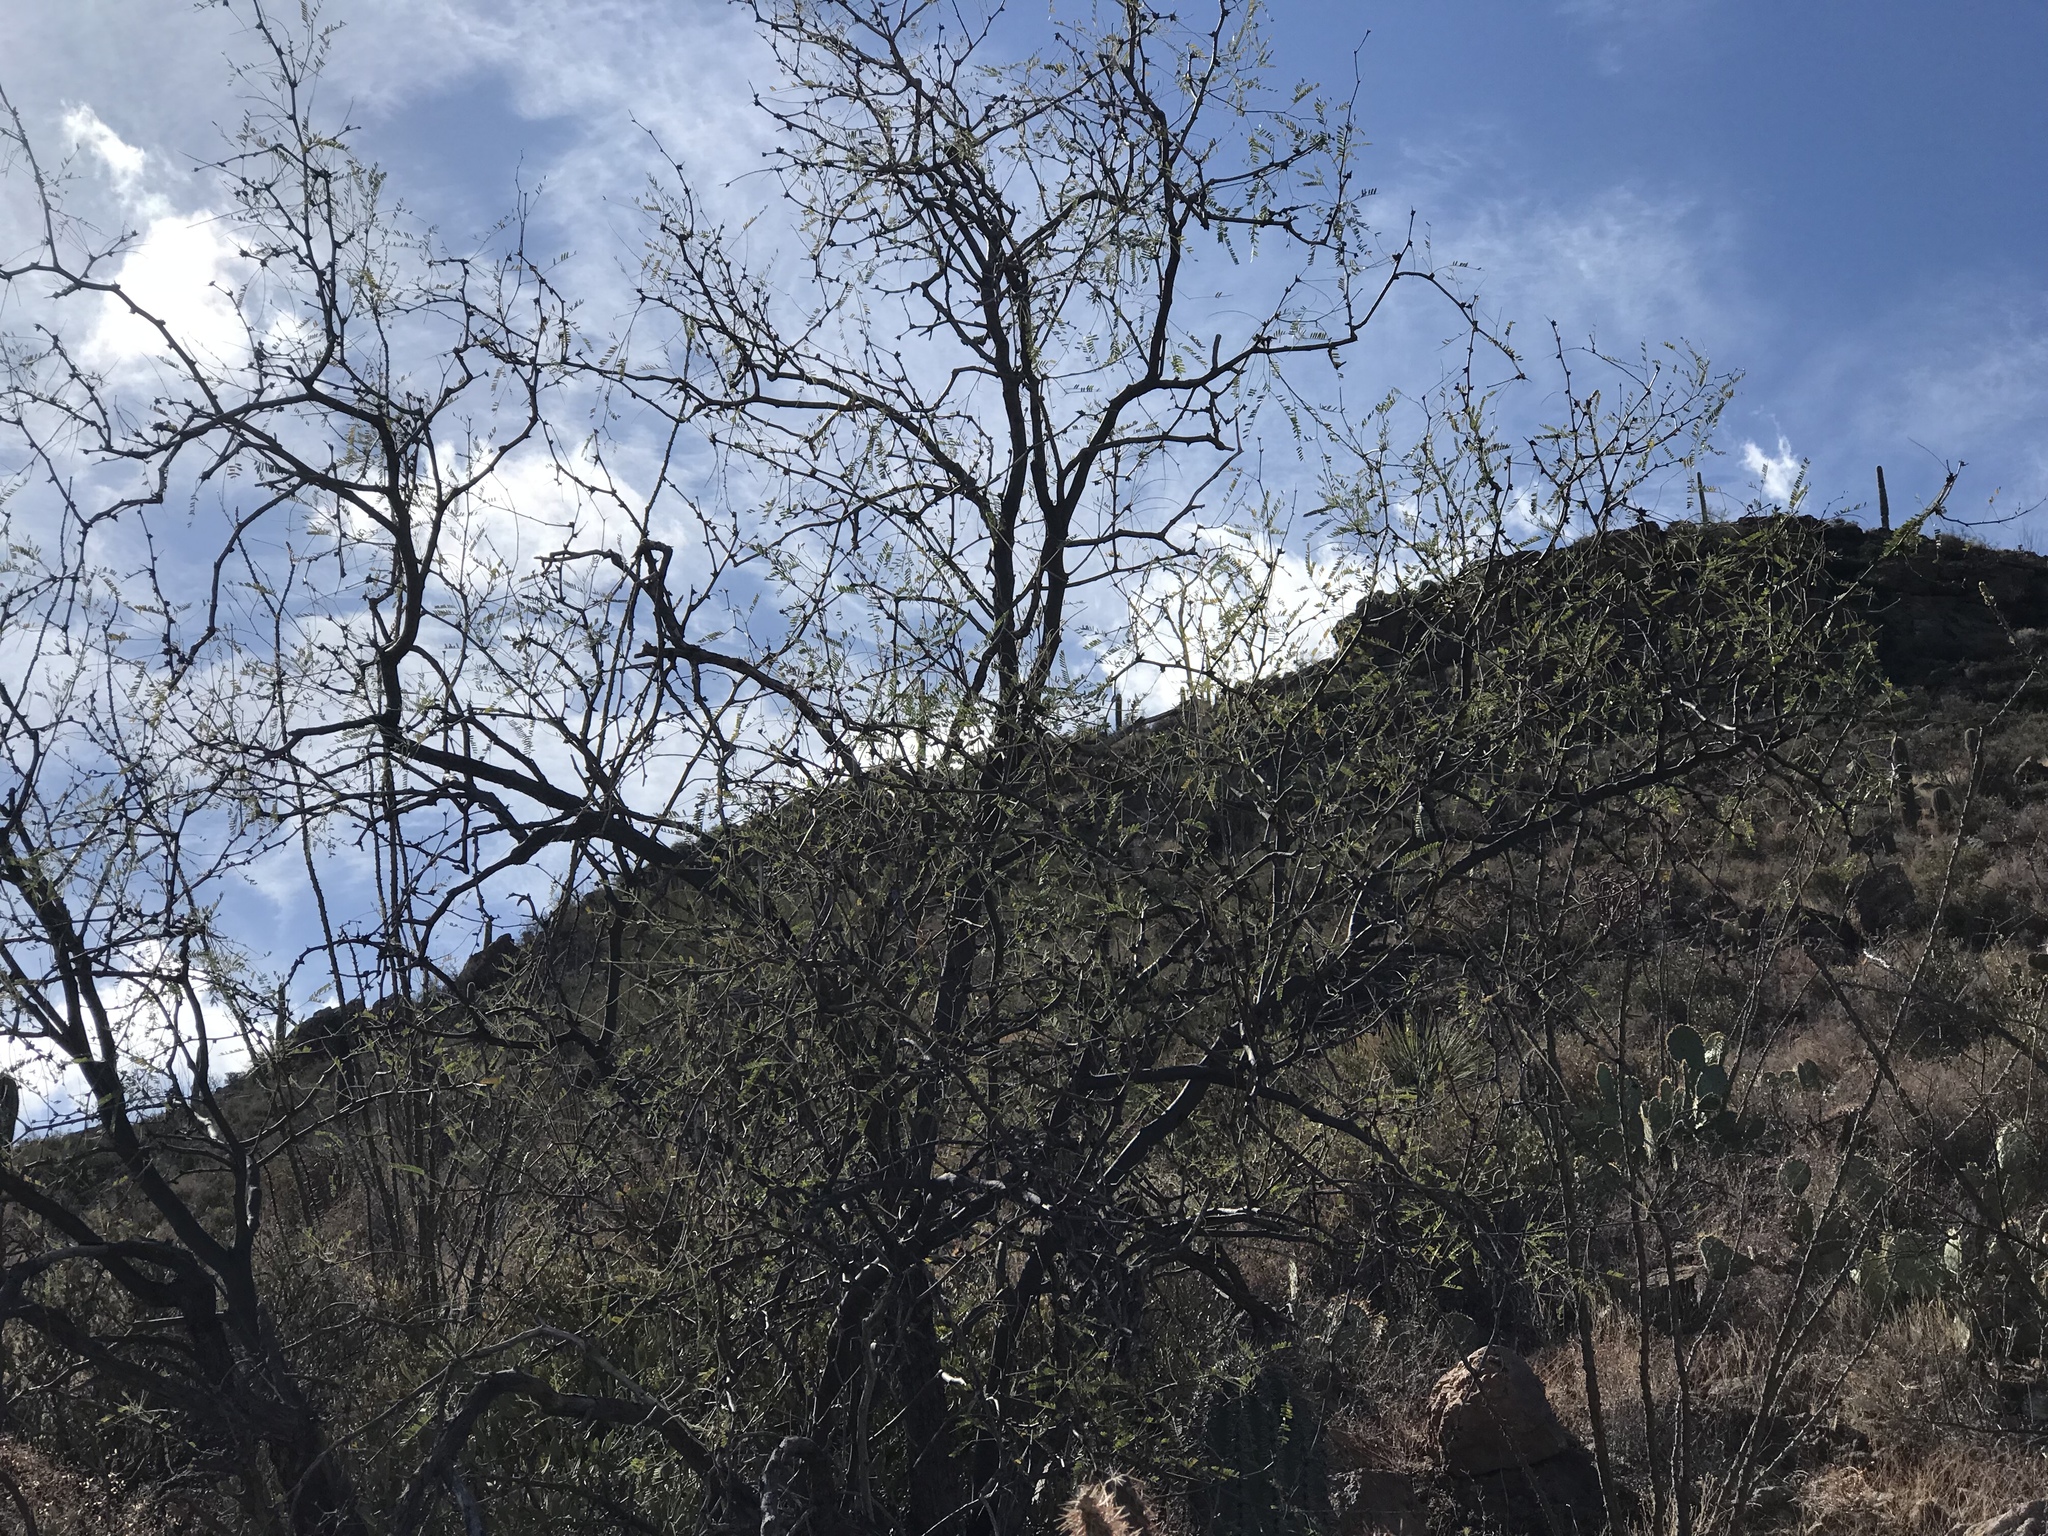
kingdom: Plantae
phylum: Tracheophyta
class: Magnoliopsida
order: Fabales
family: Fabaceae
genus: Prosopis
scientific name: Prosopis velutina
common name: Velvet mesquite
